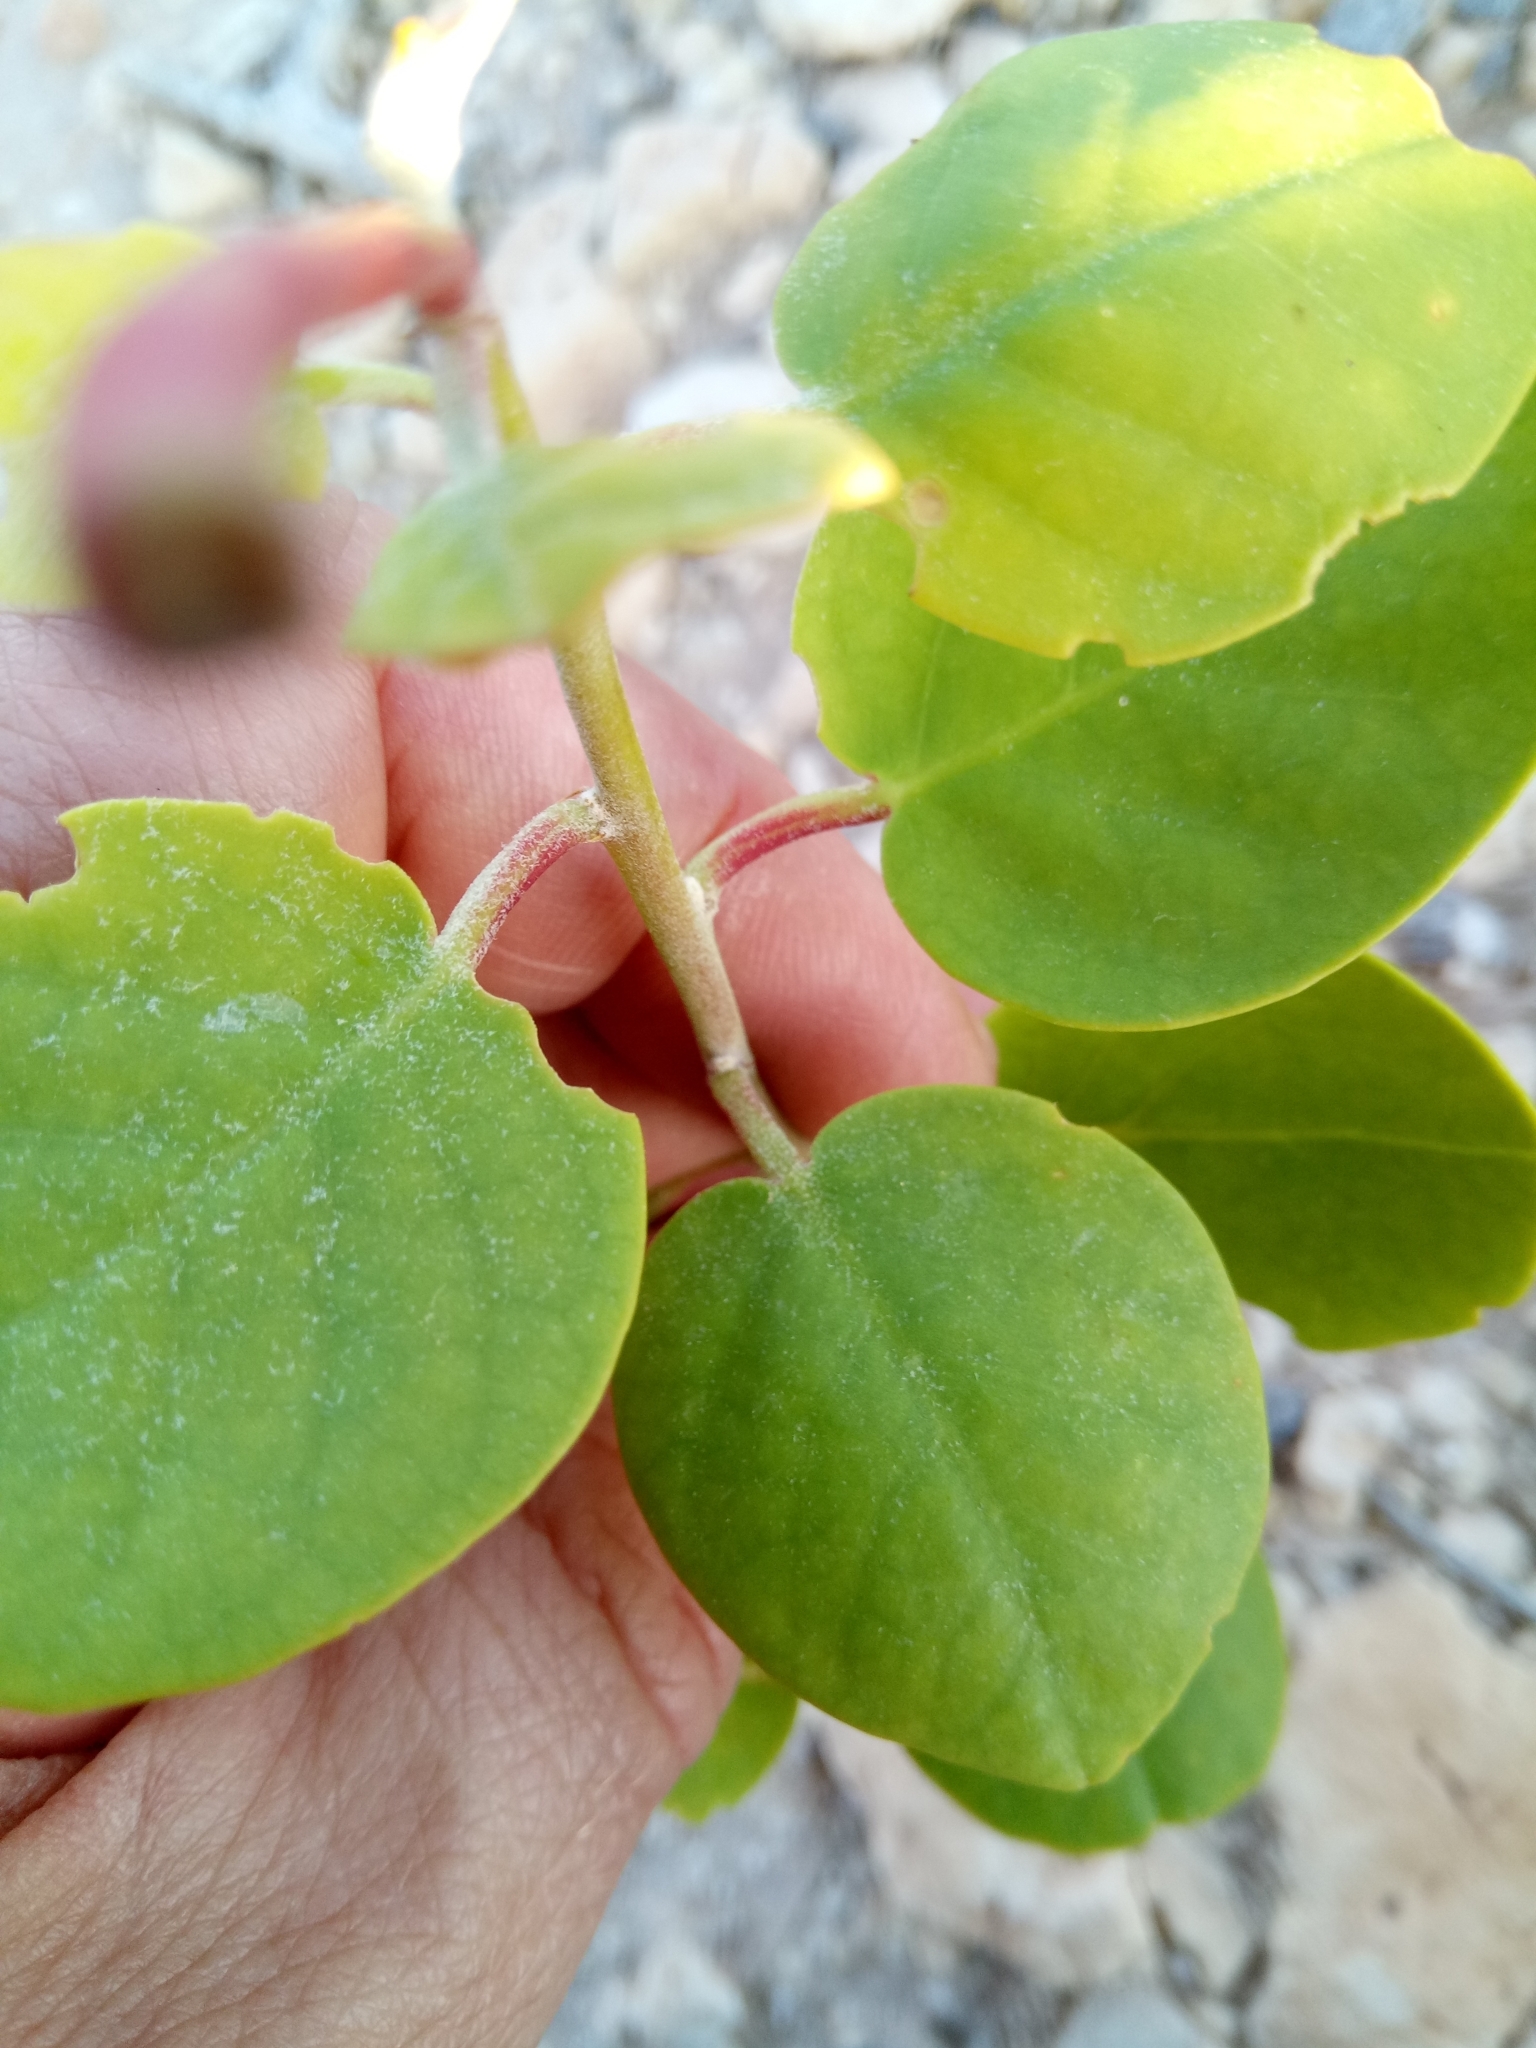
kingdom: Plantae
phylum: Tracheophyta
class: Magnoliopsida
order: Brassicales
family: Capparaceae
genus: Capparis
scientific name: Capparis orientalis
